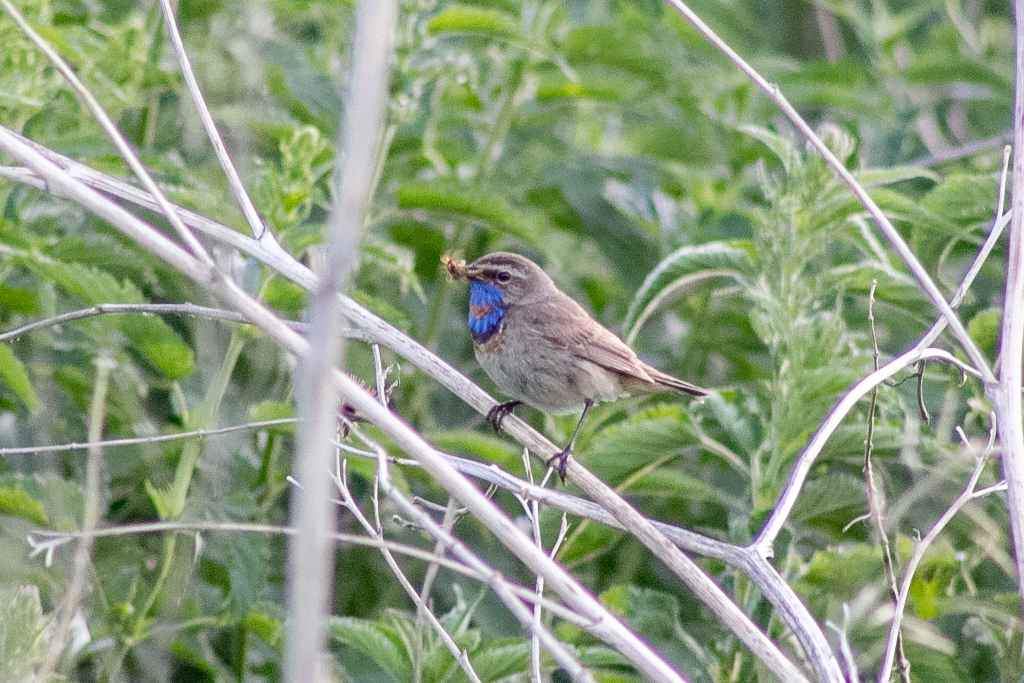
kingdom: Animalia
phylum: Chordata
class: Aves
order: Passeriformes
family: Muscicapidae
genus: Luscinia
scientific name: Luscinia svecica
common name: Bluethroat
